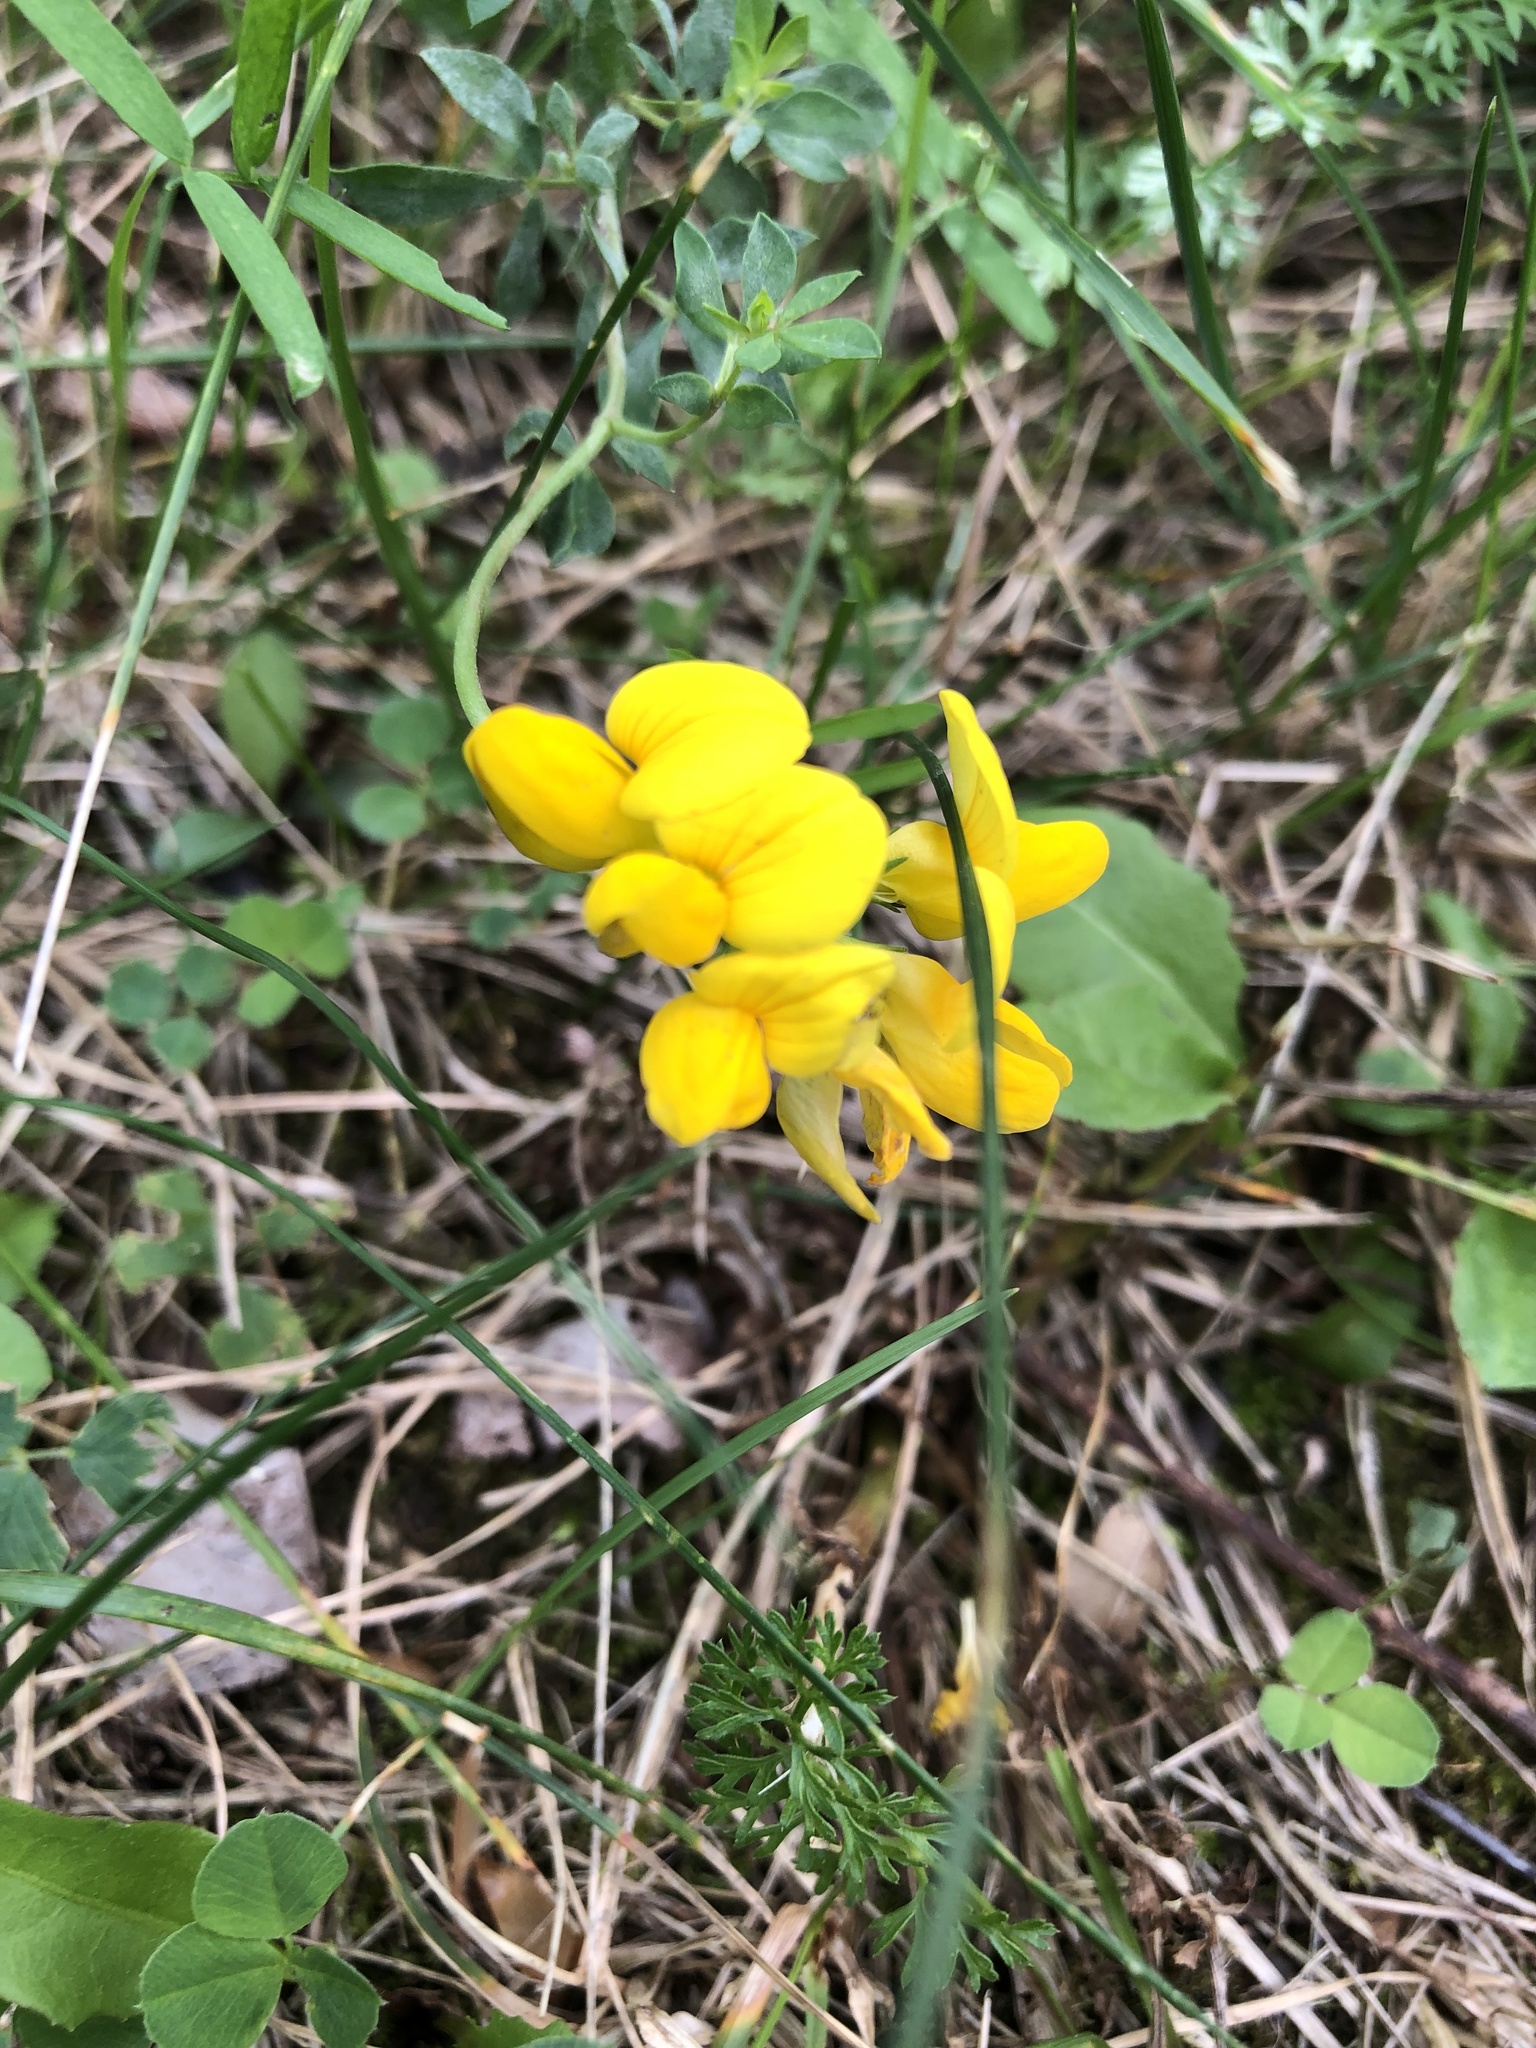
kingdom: Plantae
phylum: Tracheophyta
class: Magnoliopsida
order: Fabales
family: Fabaceae
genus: Lotus
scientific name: Lotus corniculatus
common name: Common bird's-foot-trefoil
